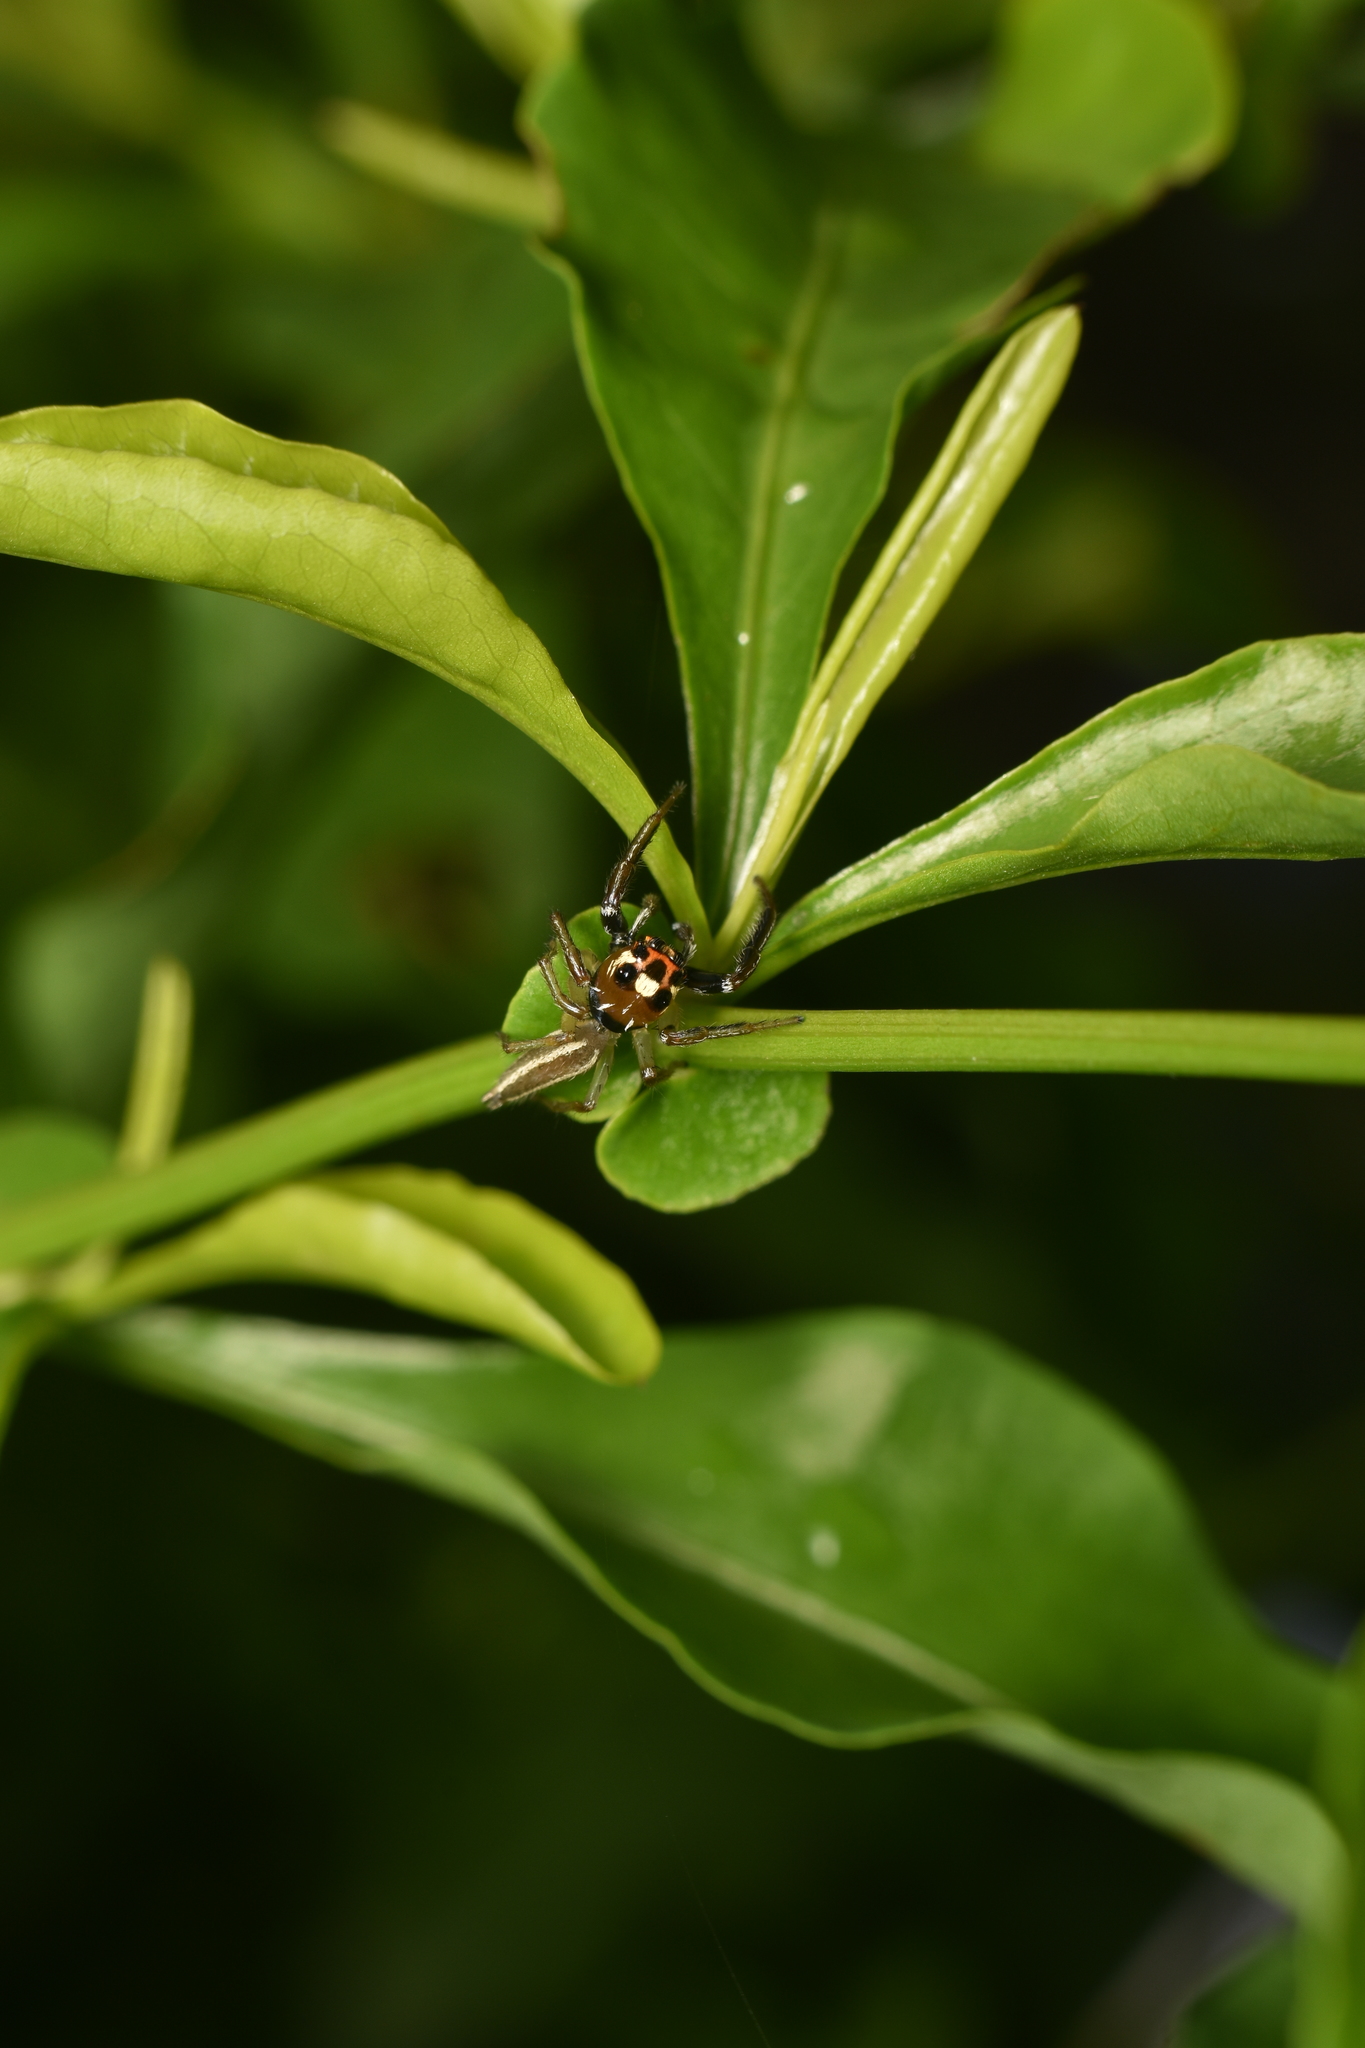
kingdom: Animalia
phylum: Arthropoda
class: Arachnida
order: Araneae
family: Salticidae
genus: Colonus
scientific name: Colonus sylvanus
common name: Jumping spiders
